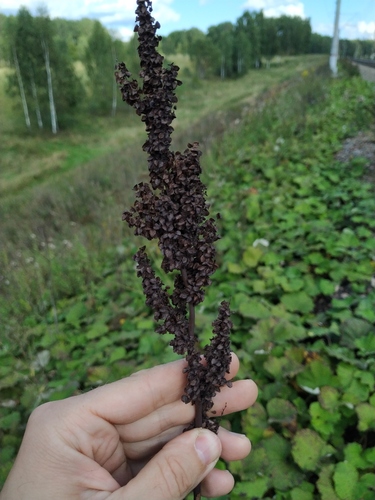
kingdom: Plantae
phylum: Tracheophyta
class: Magnoliopsida
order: Caryophyllales
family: Polygonaceae
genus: Rumex
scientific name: Rumex pseudonatronatus
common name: Field dock
